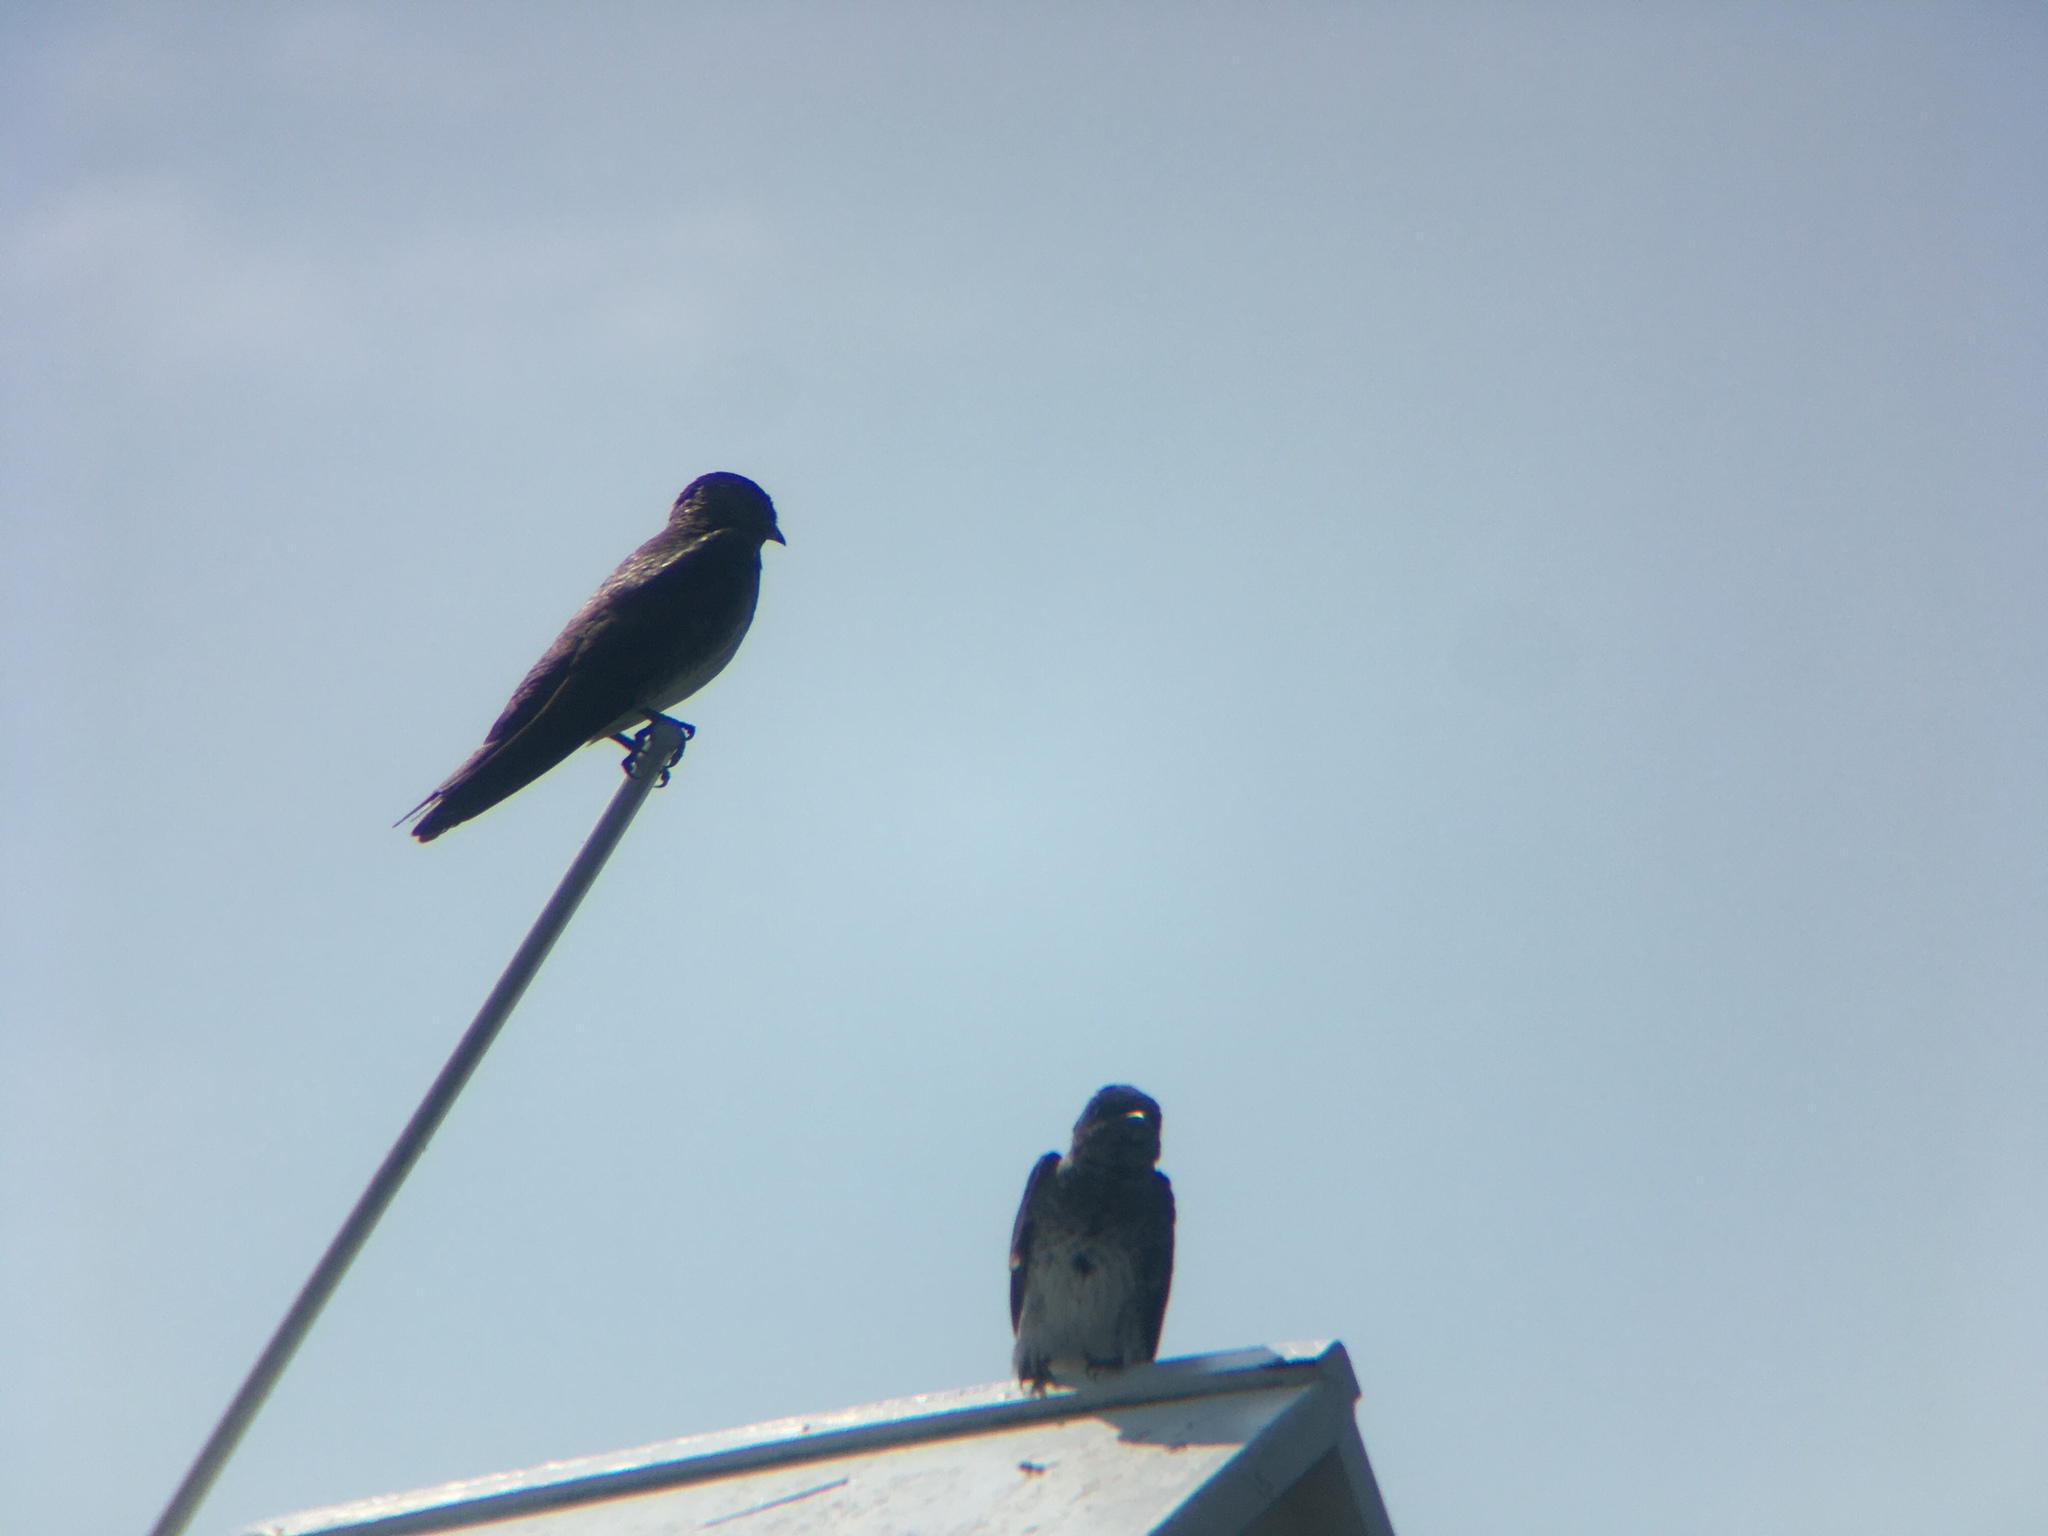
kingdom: Animalia
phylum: Chordata
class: Aves
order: Passeriformes
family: Hirundinidae
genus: Progne
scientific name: Progne subis
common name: Purple martin
